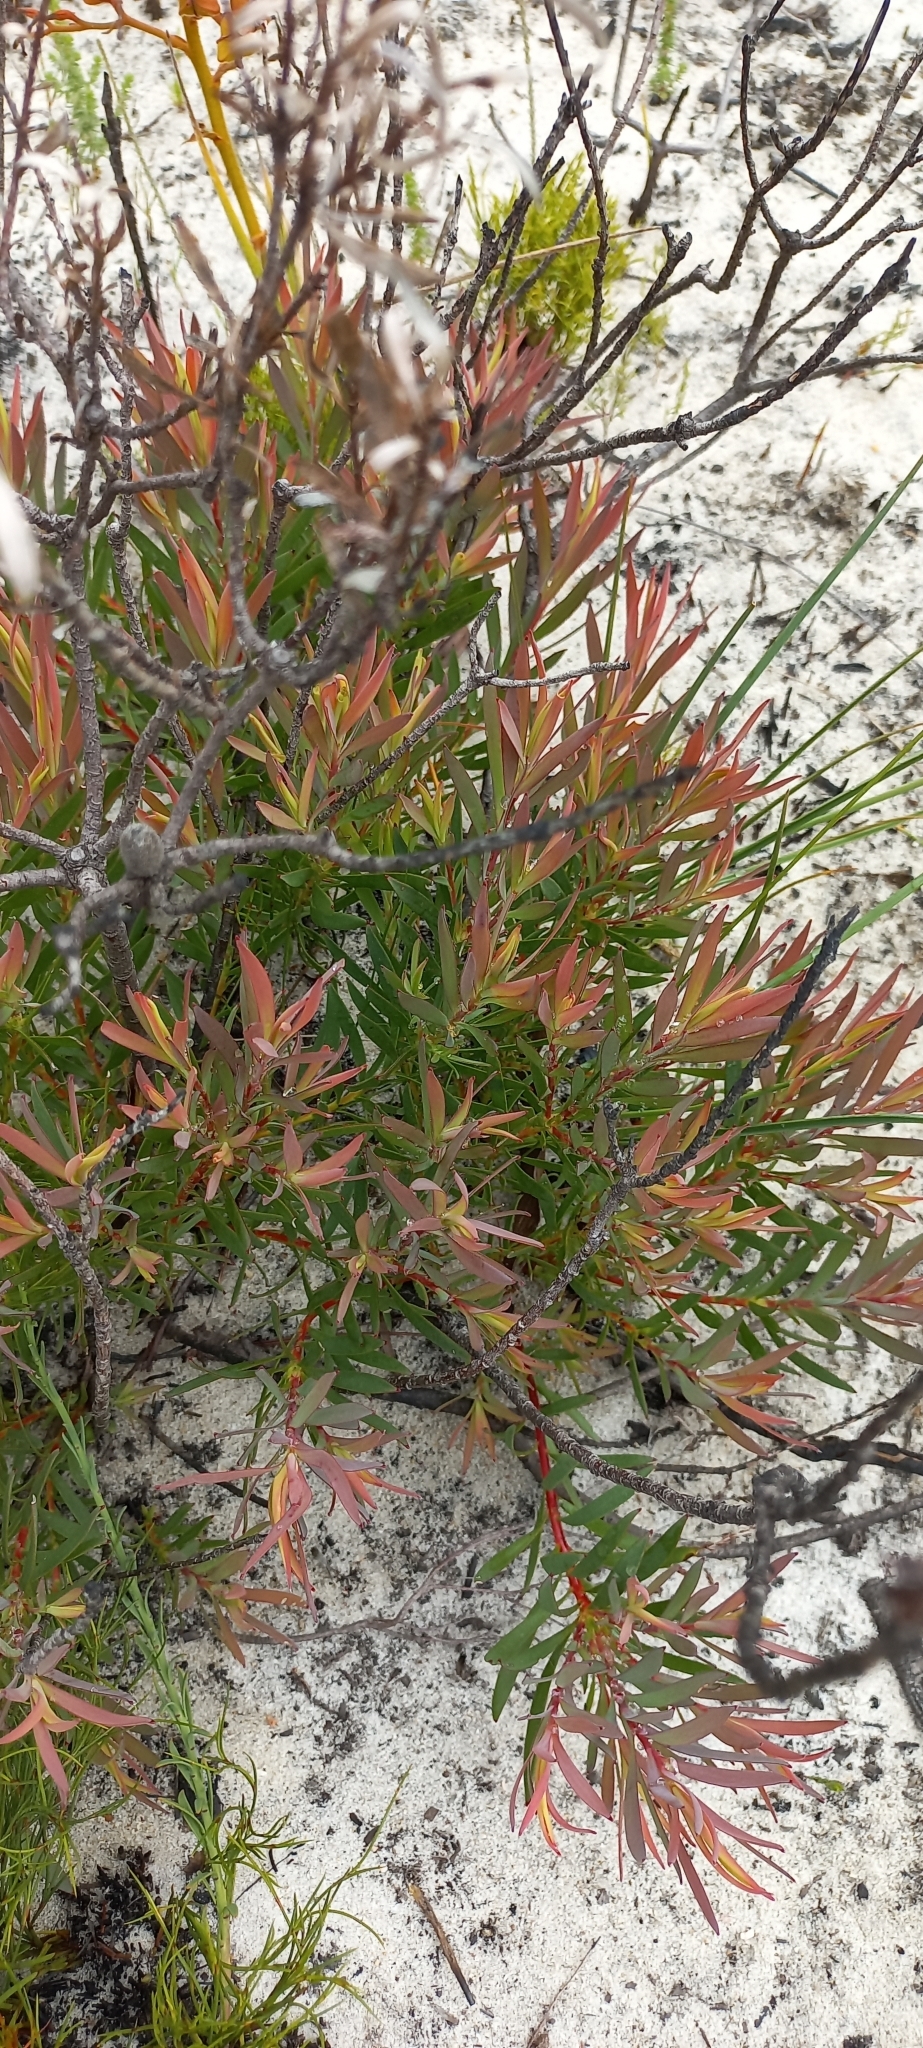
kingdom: Plantae
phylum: Tracheophyta
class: Magnoliopsida
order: Proteales
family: Proteaceae
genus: Leucadendron
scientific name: Leucadendron salignum
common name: Common sunshine conebush
